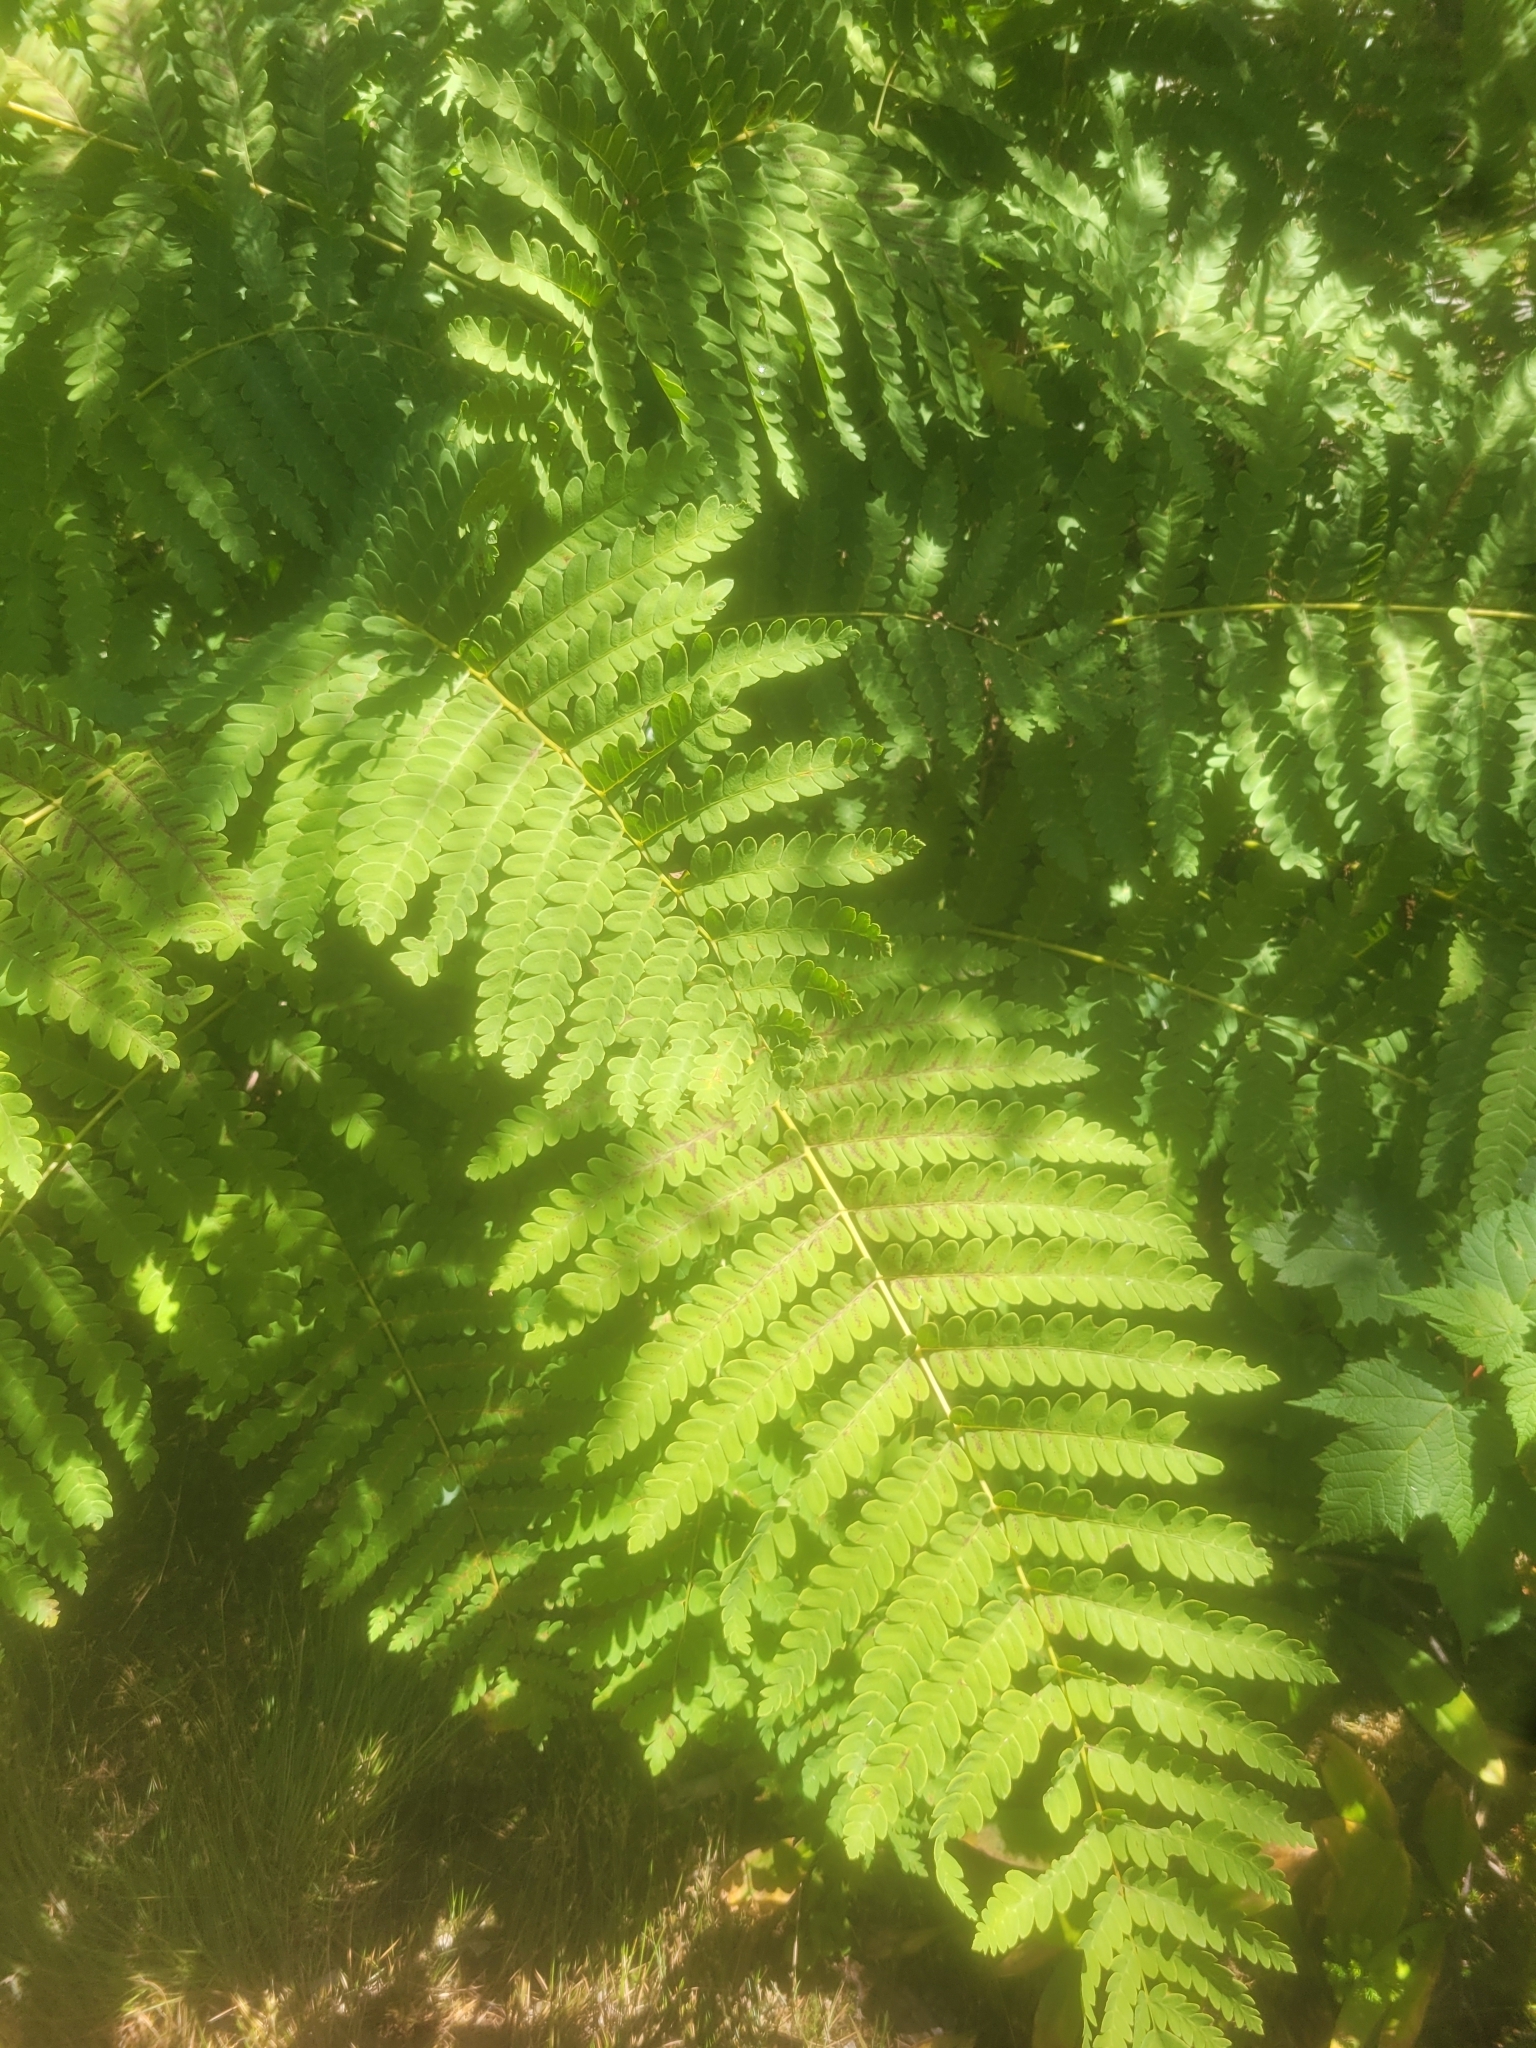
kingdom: Plantae
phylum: Tracheophyta
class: Polypodiopsida
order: Osmundales
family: Osmundaceae
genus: Claytosmunda
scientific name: Claytosmunda claytoniana
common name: Clayton's fern
